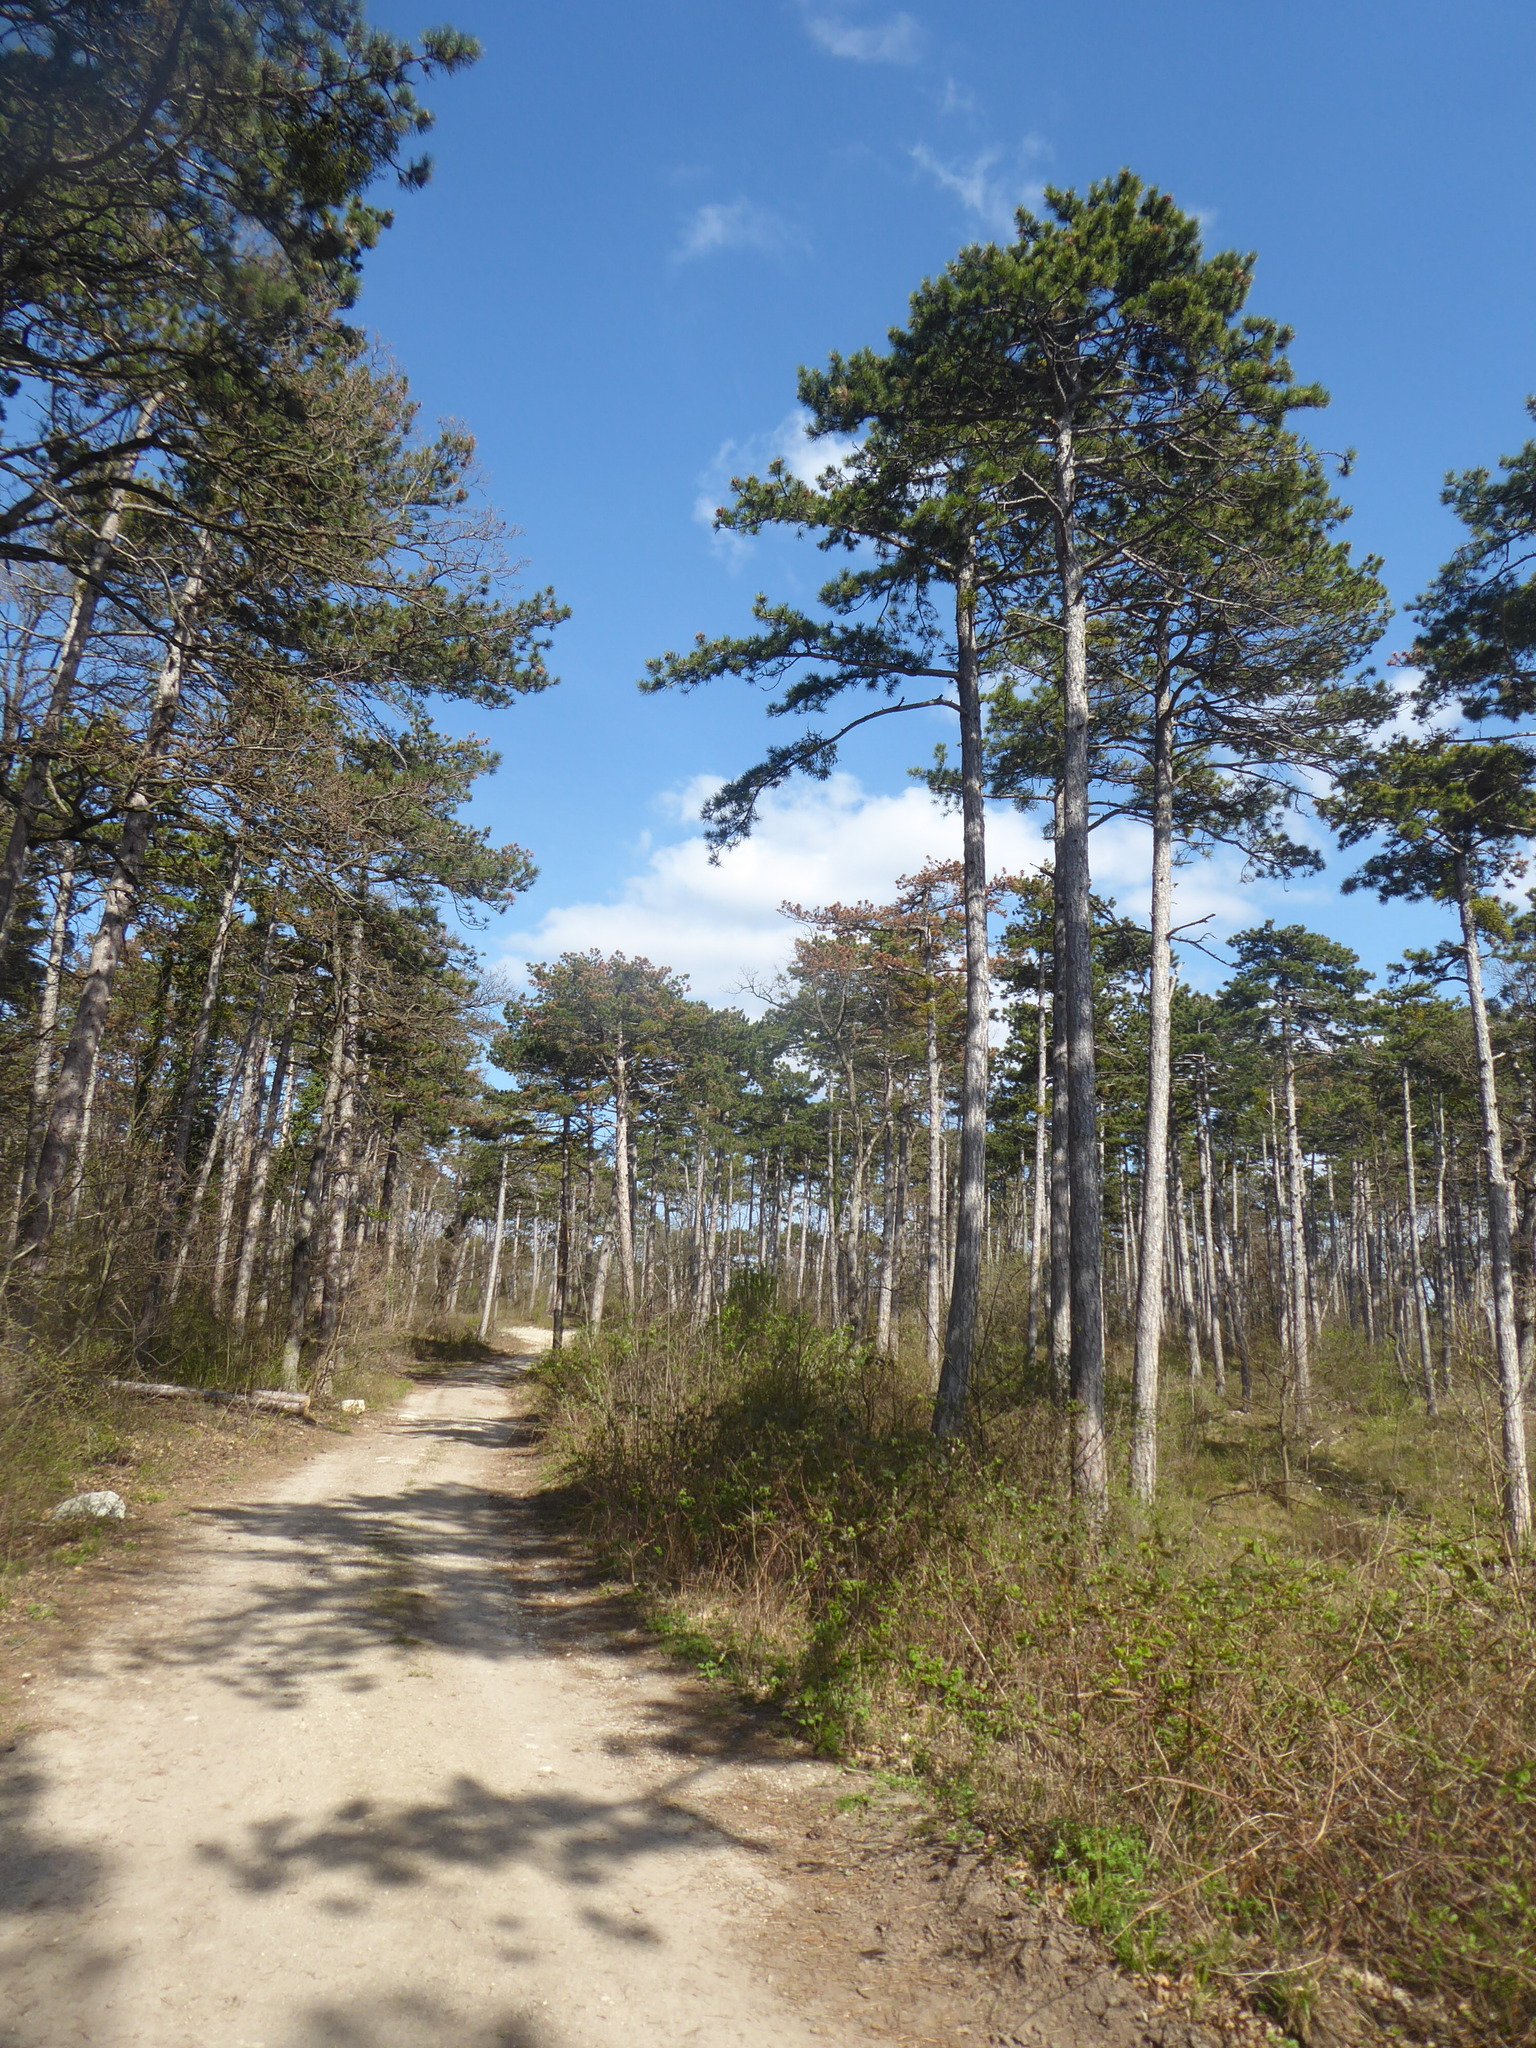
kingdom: Plantae
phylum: Tracheophyta
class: Pinopsida
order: Pinales
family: Pinaceae
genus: Pinus
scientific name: Pinus nigra
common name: Austrian pine
